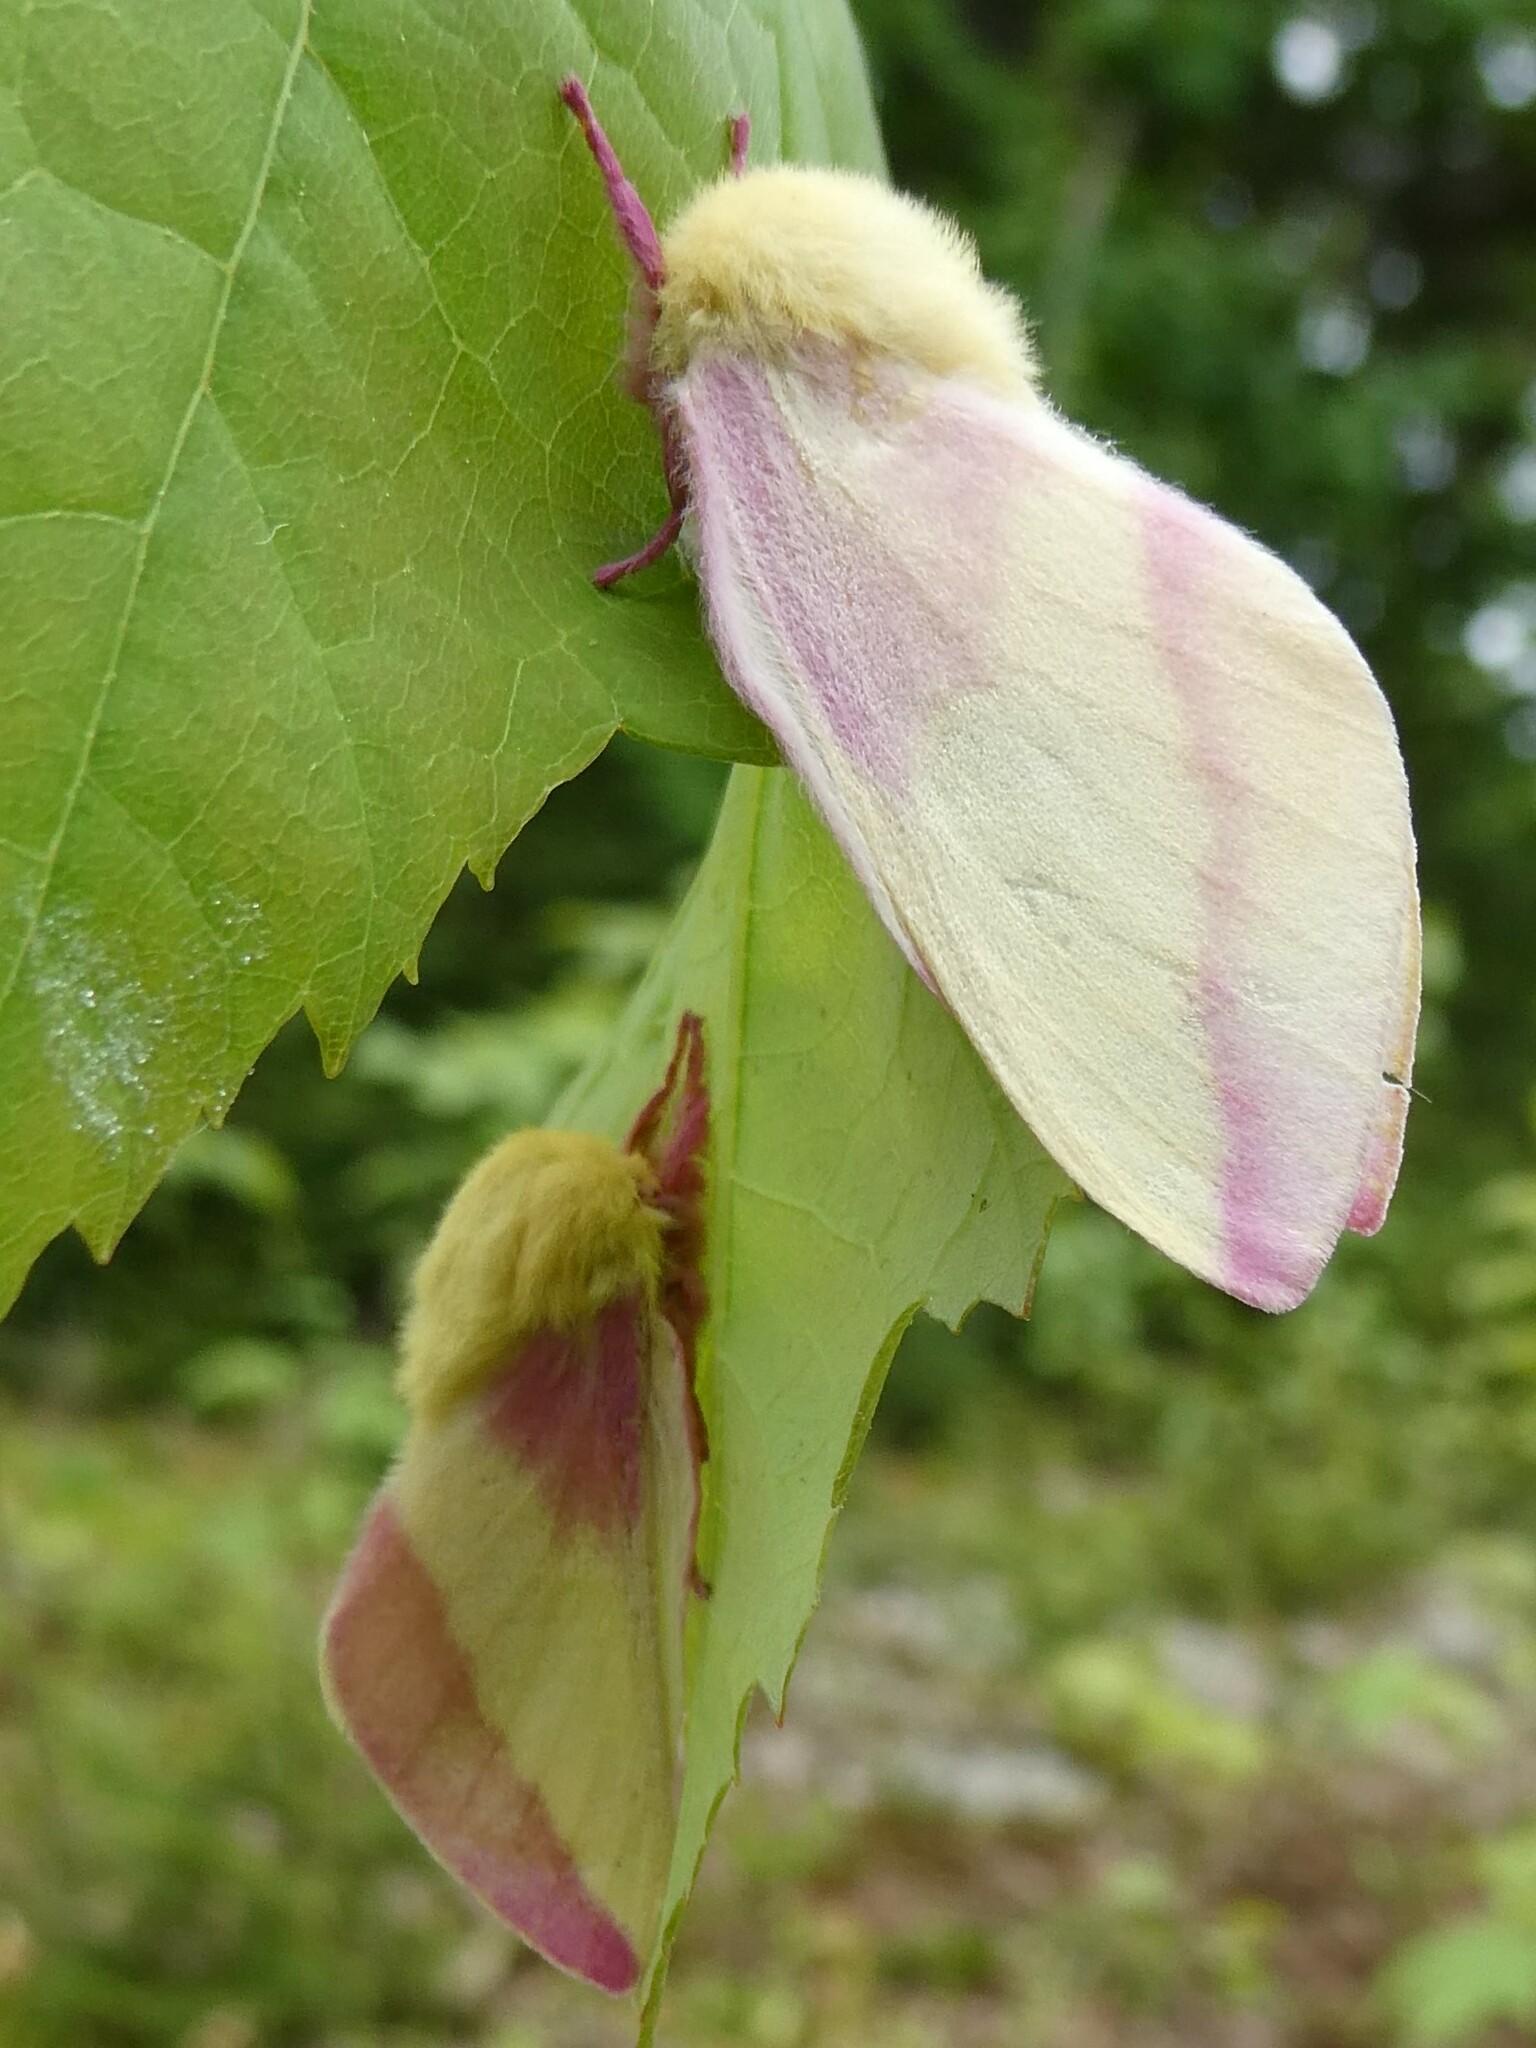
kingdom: Animalia
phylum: Arthropoda
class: Insecta
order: Lepidoptera
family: Saturniidae
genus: Dryocampa
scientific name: Dryocampa rubicunda
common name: Rosy maple moth
